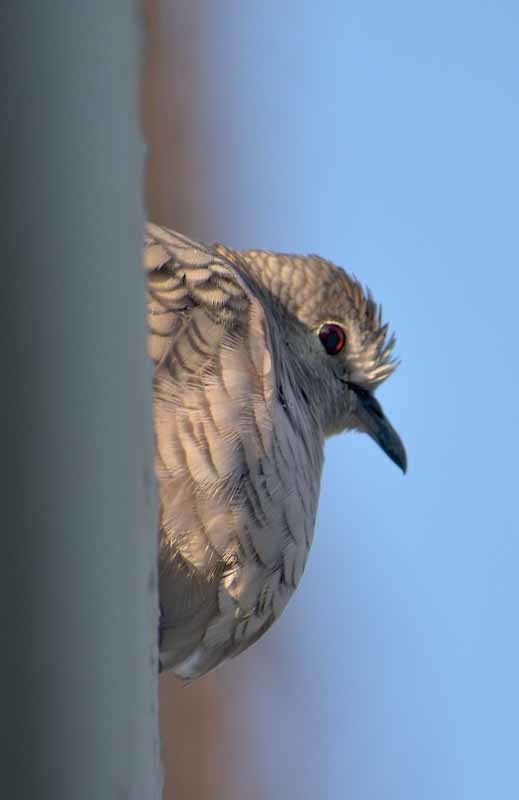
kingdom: Animalia
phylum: Chordata
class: Aves
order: Columbiformes
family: Columbidae
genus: Columbina
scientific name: Columbina inca
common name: Inca dove
